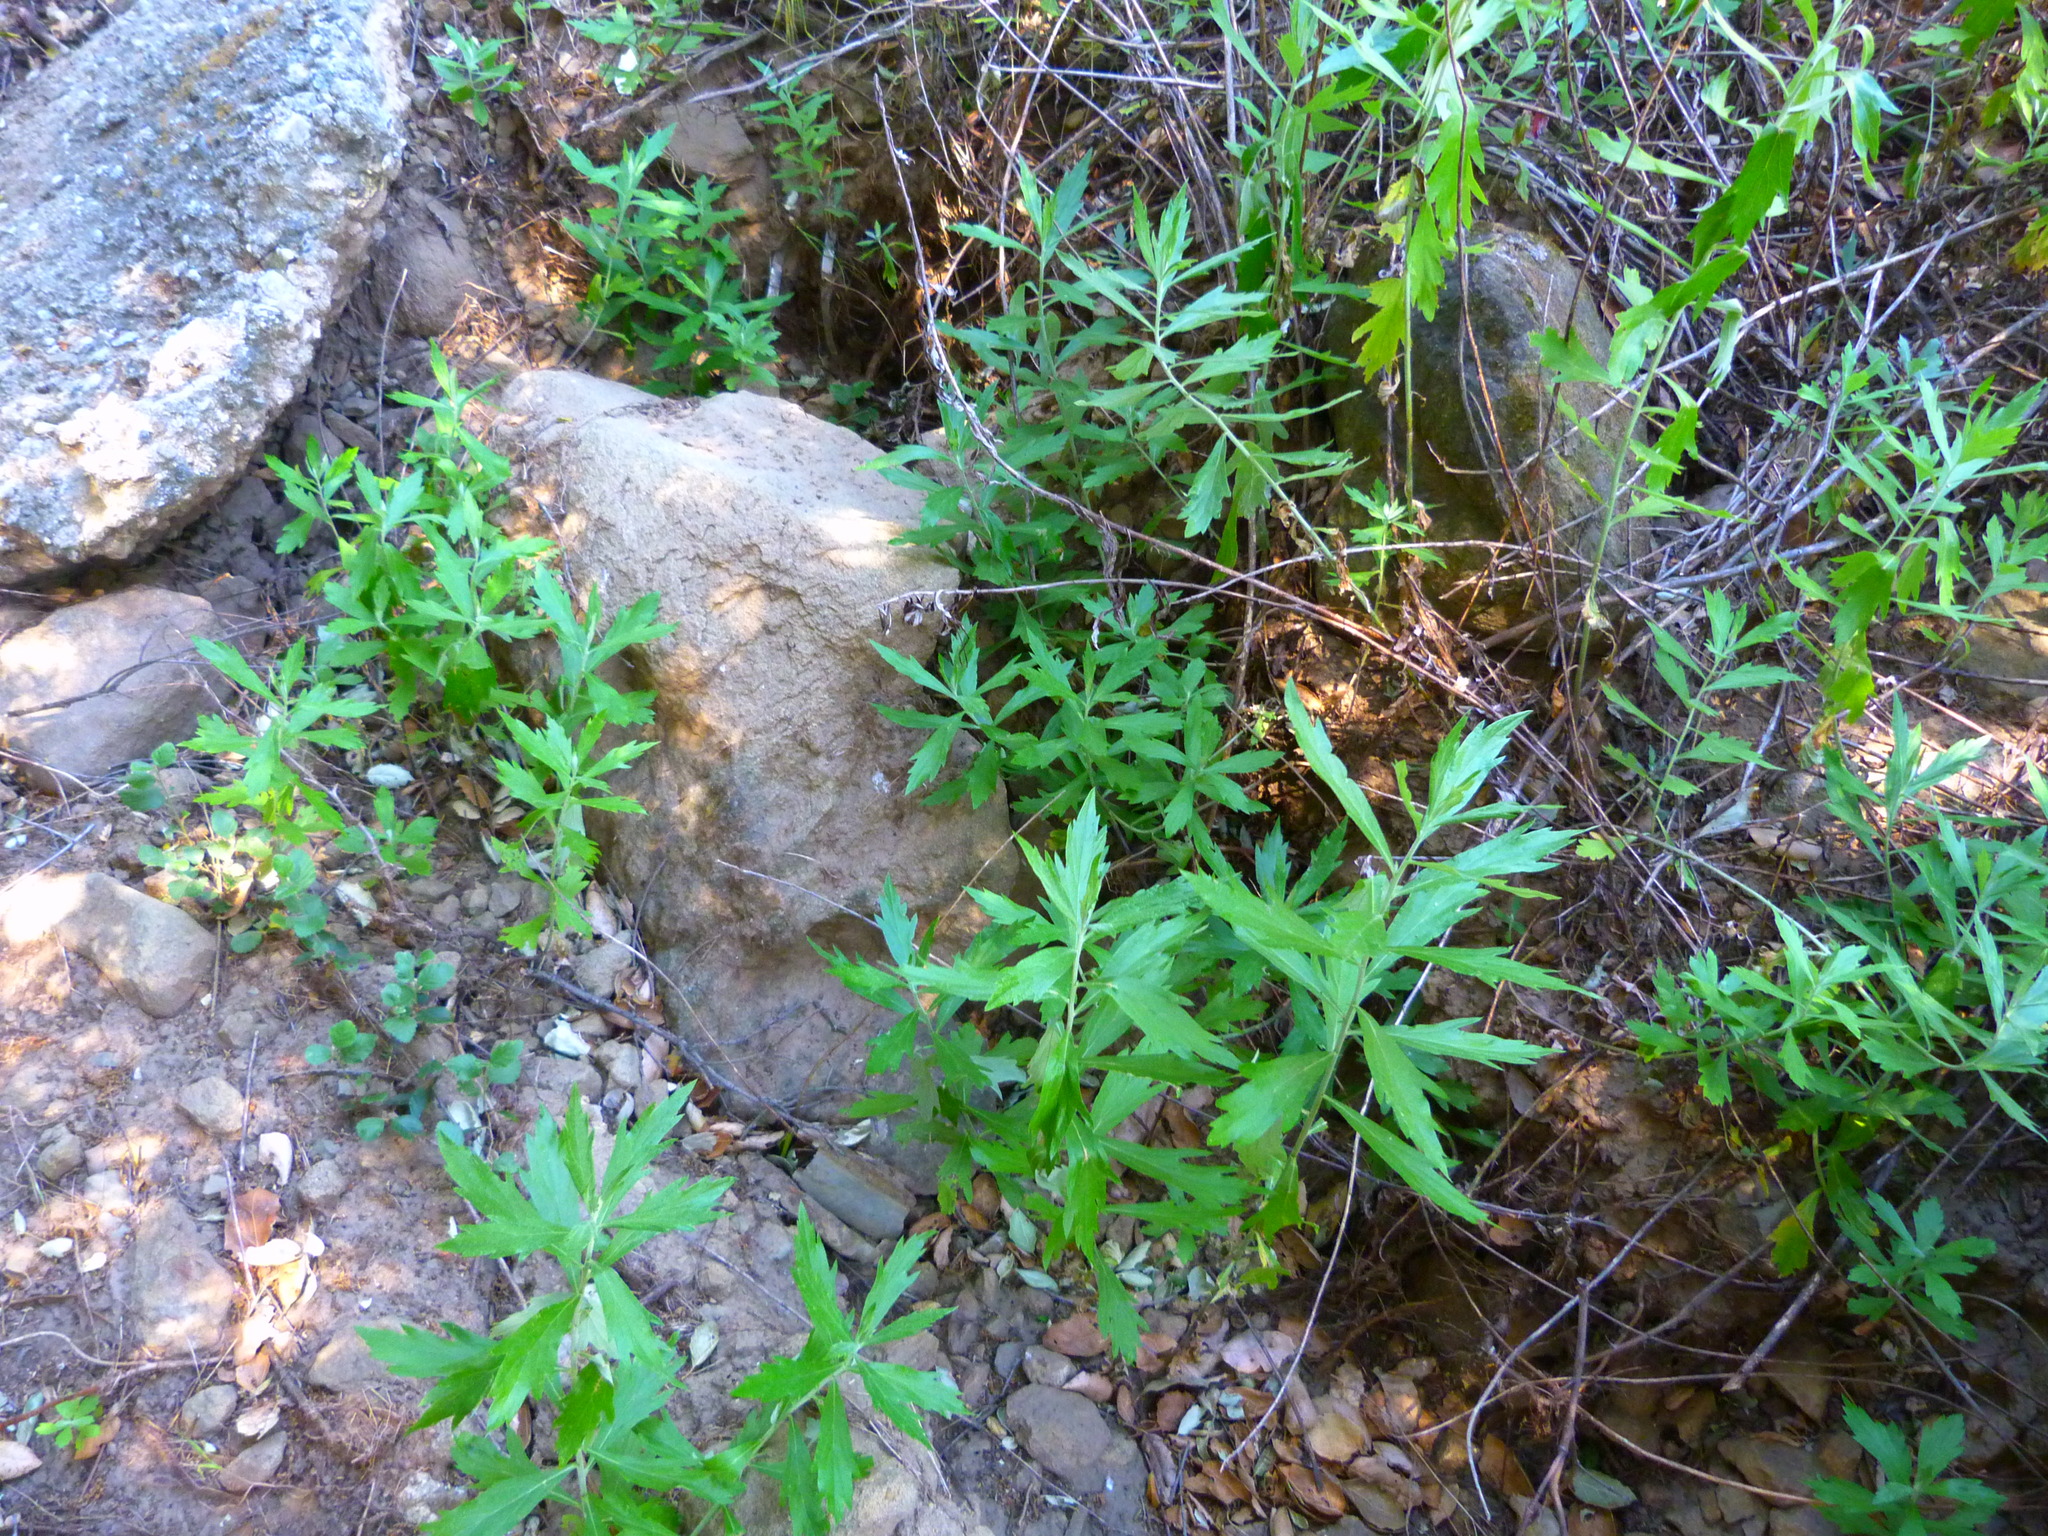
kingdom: Plantae
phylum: Tracheophyta
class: Magnoliopsida
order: Asterales
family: Asteraceae
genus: Artemisia
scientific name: Artemisia douglasiana
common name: Northwest mugwort
